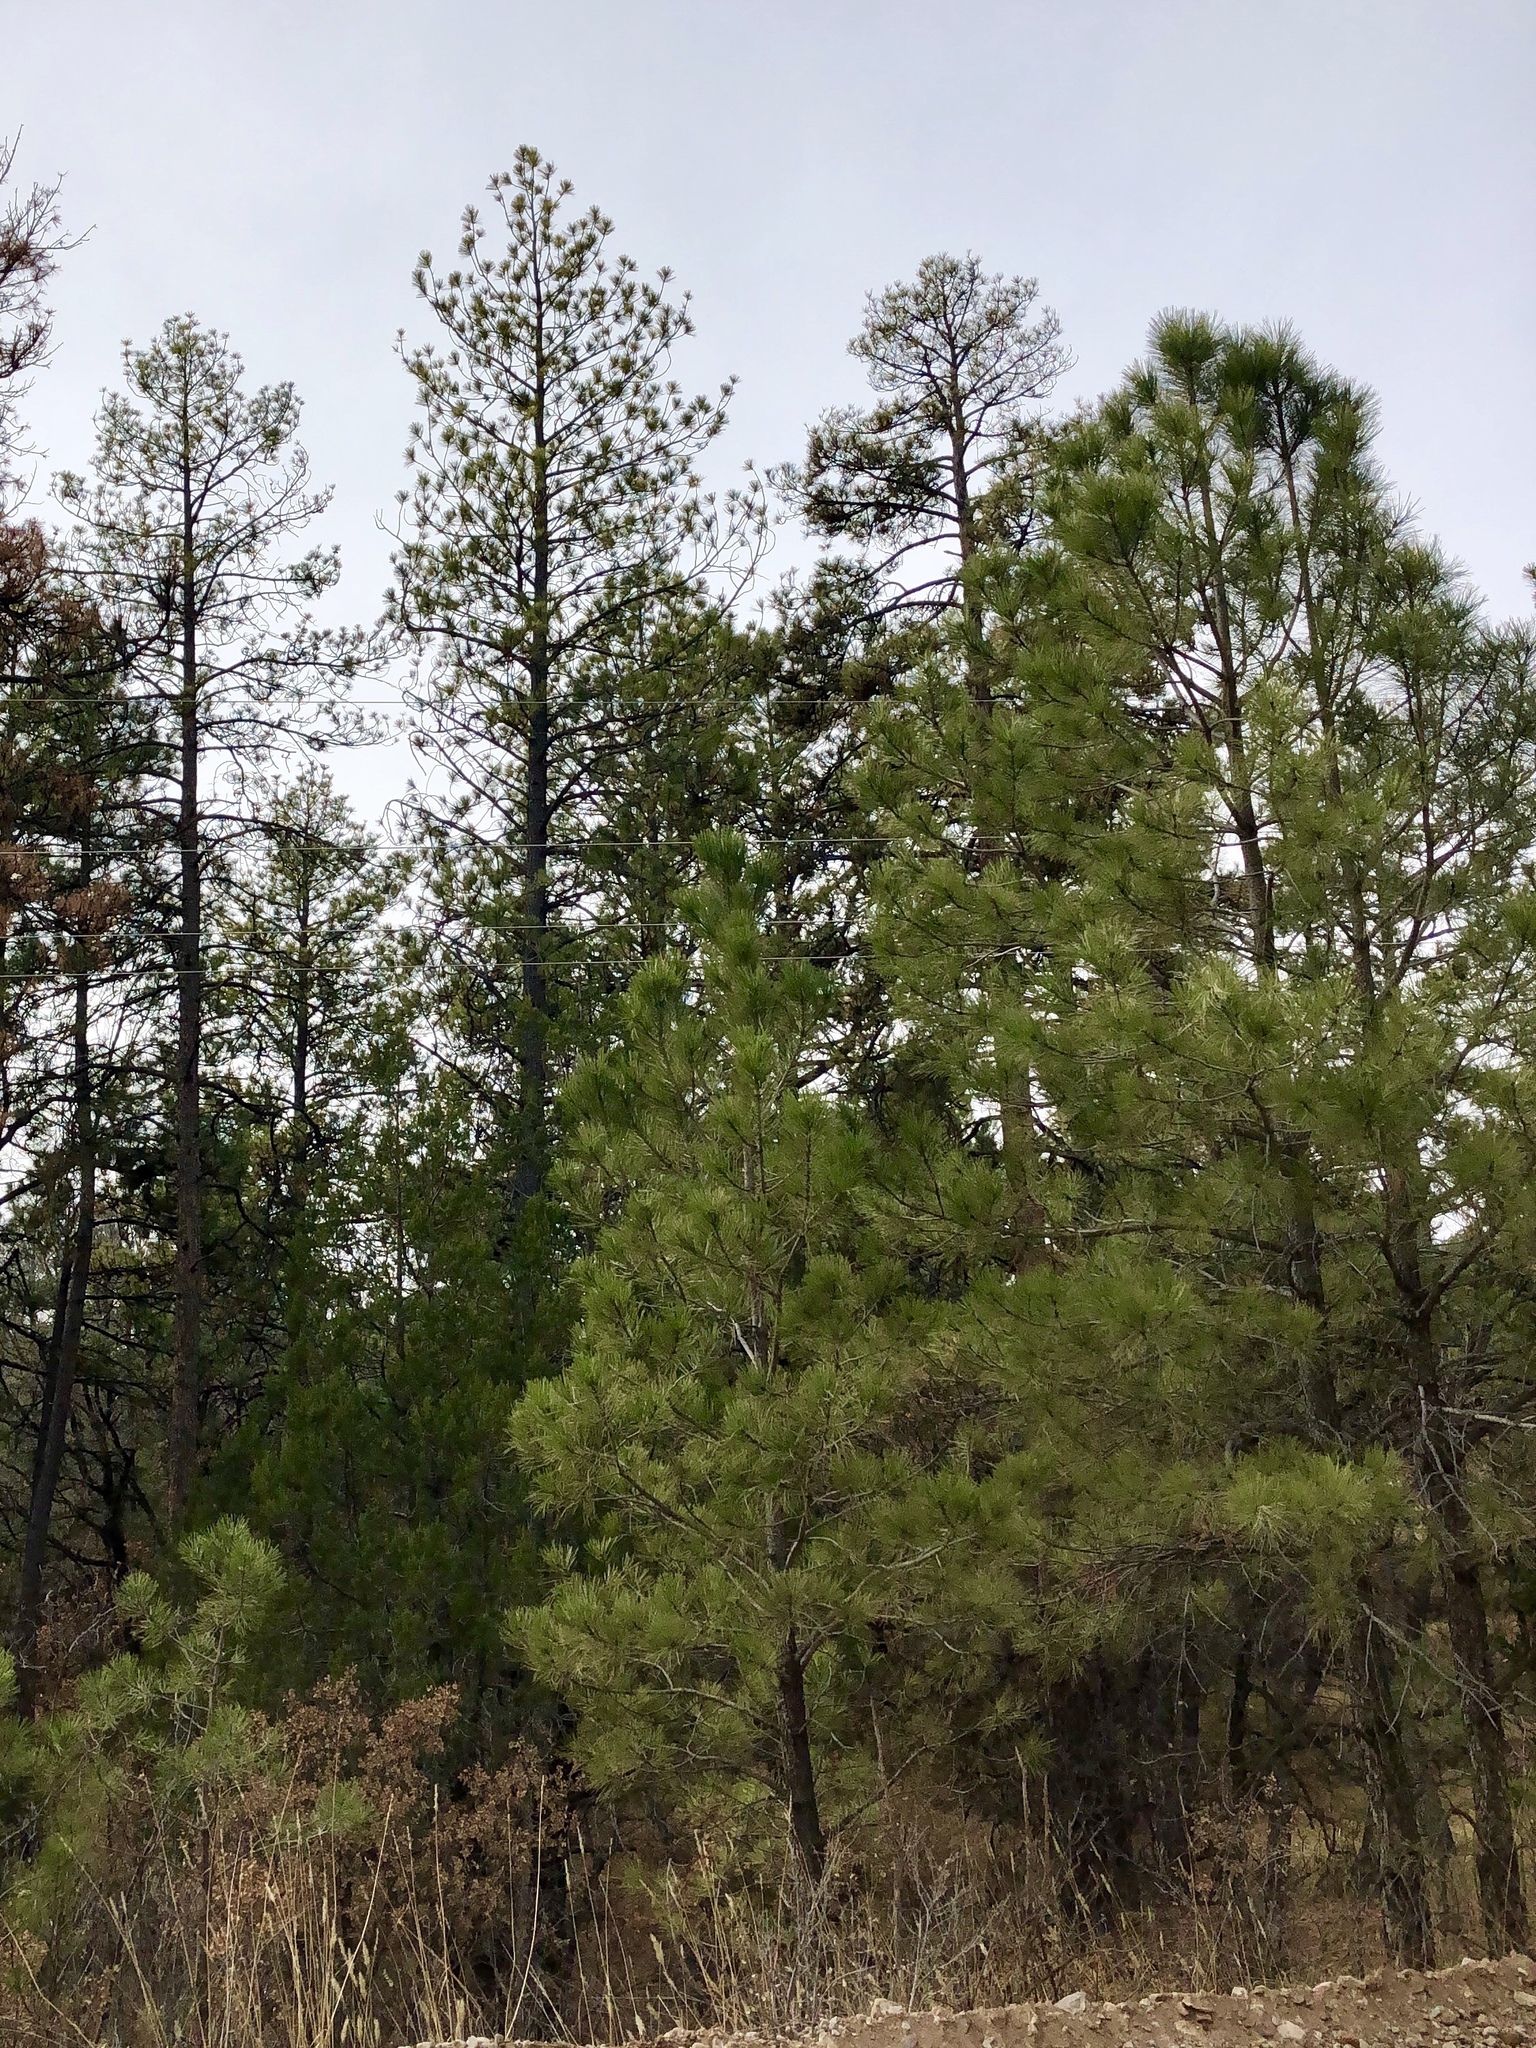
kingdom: Plantae
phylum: Tracheophyta
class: Pinopsida
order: Pinales
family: Pinaceae
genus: Pinus
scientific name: Pinus ponderosa
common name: Western yellow-pine
